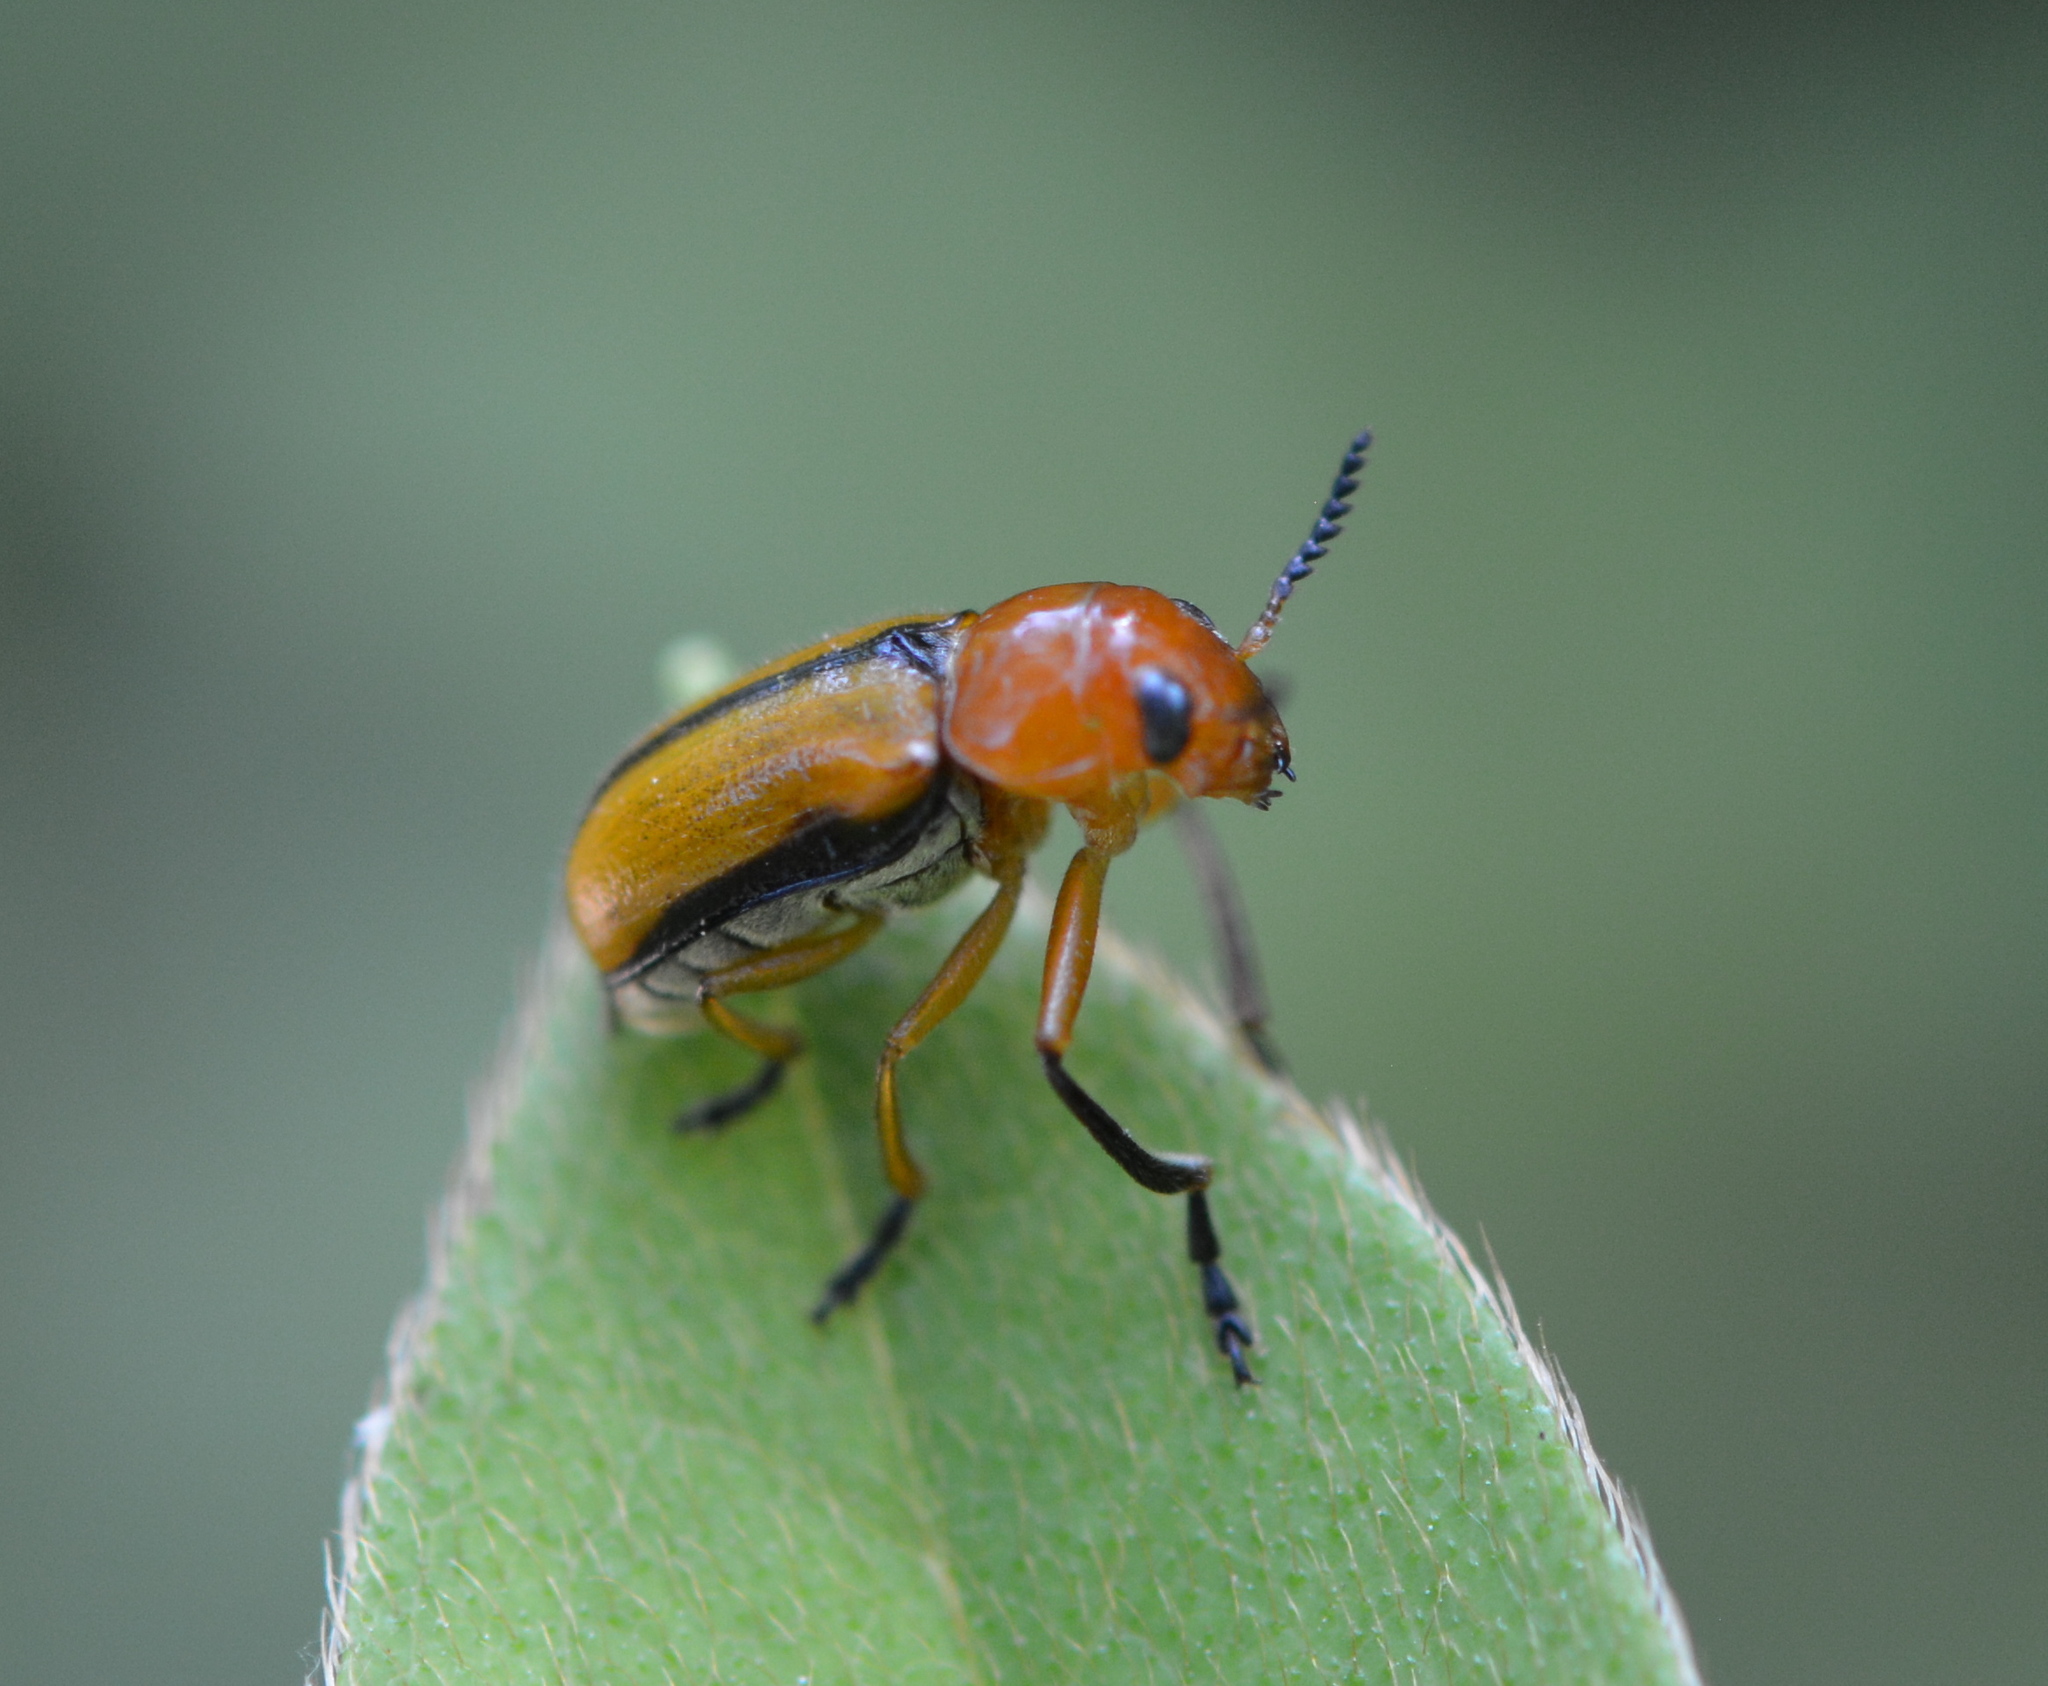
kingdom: Animalia
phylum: Arthropoda
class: Insecta
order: Coleoptera
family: Chrysomelidae
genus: Anomoea
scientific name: Anomoea laticlavia
